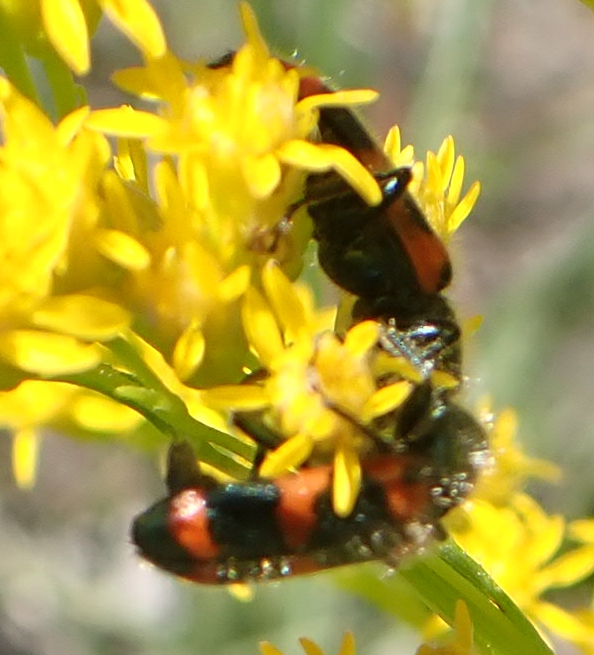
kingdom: Animalia
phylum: Arthropoda
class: Insecta
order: Coleoptera
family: Cleridae
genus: Trichodes
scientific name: Trichodes nutalli
